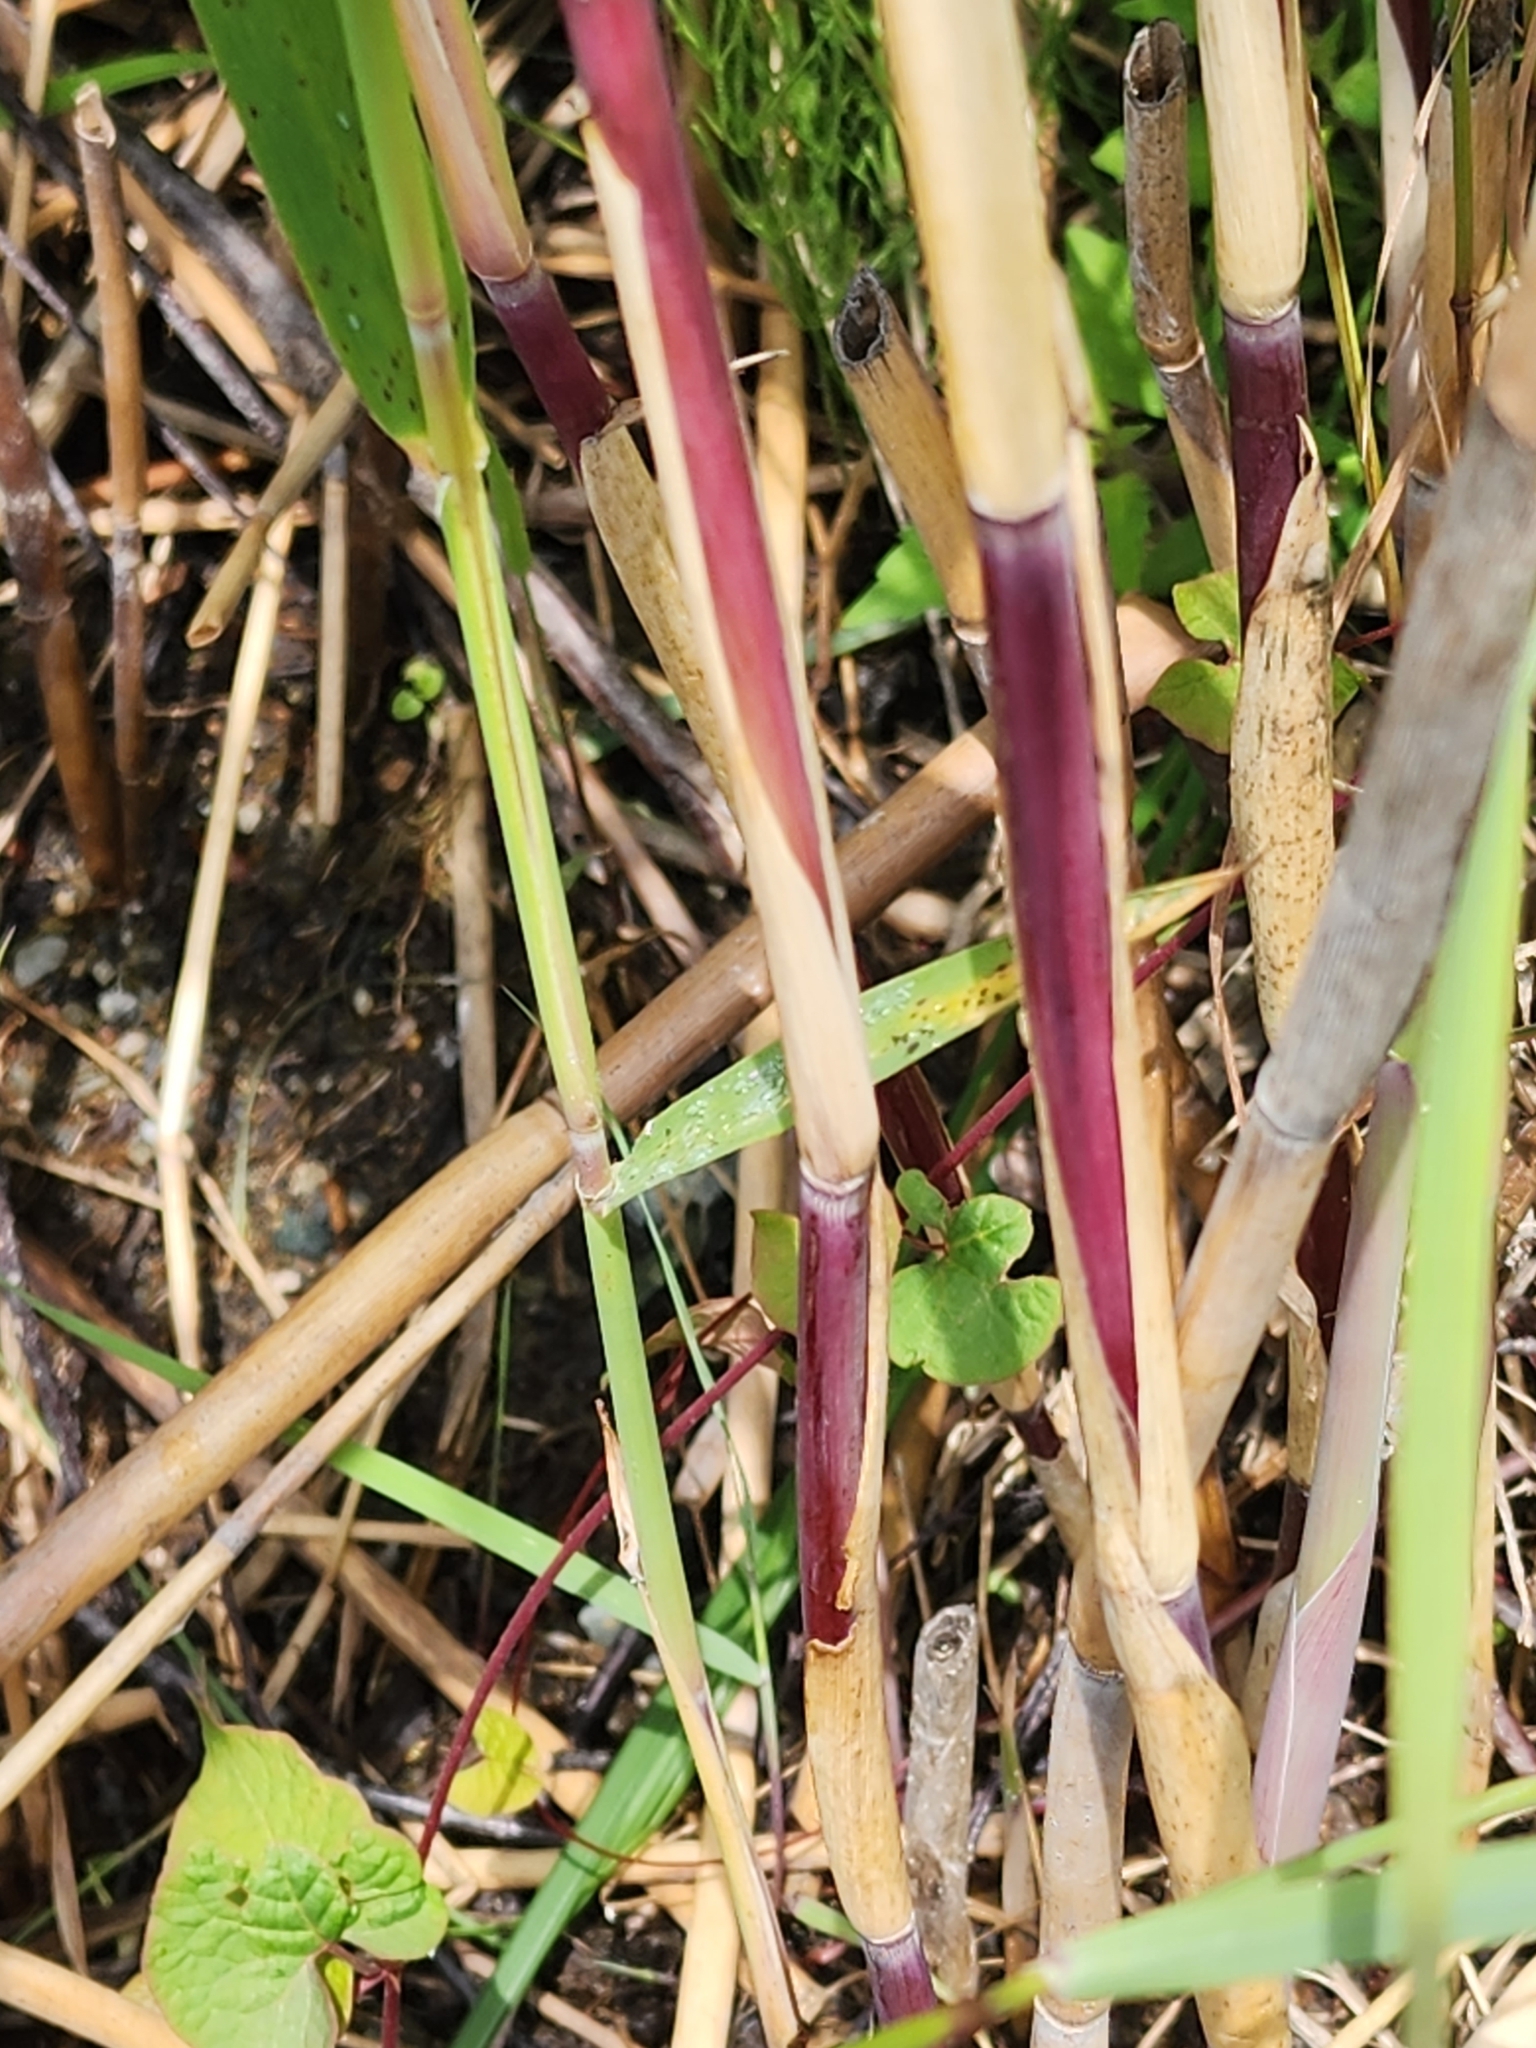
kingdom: Plantae
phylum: Tracheophyta
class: Liliopsida
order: Poales
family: Poaceae
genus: Phragmites
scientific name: Phragmites australis
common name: Common reed
